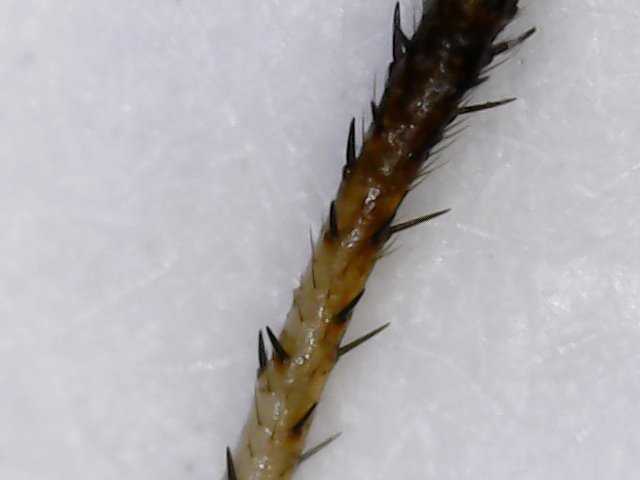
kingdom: Animalia
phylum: Arthropoda
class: Insecta
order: Hemiptera
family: Cydnidae
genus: Adomerus
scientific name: Adomerus fuscipennis
